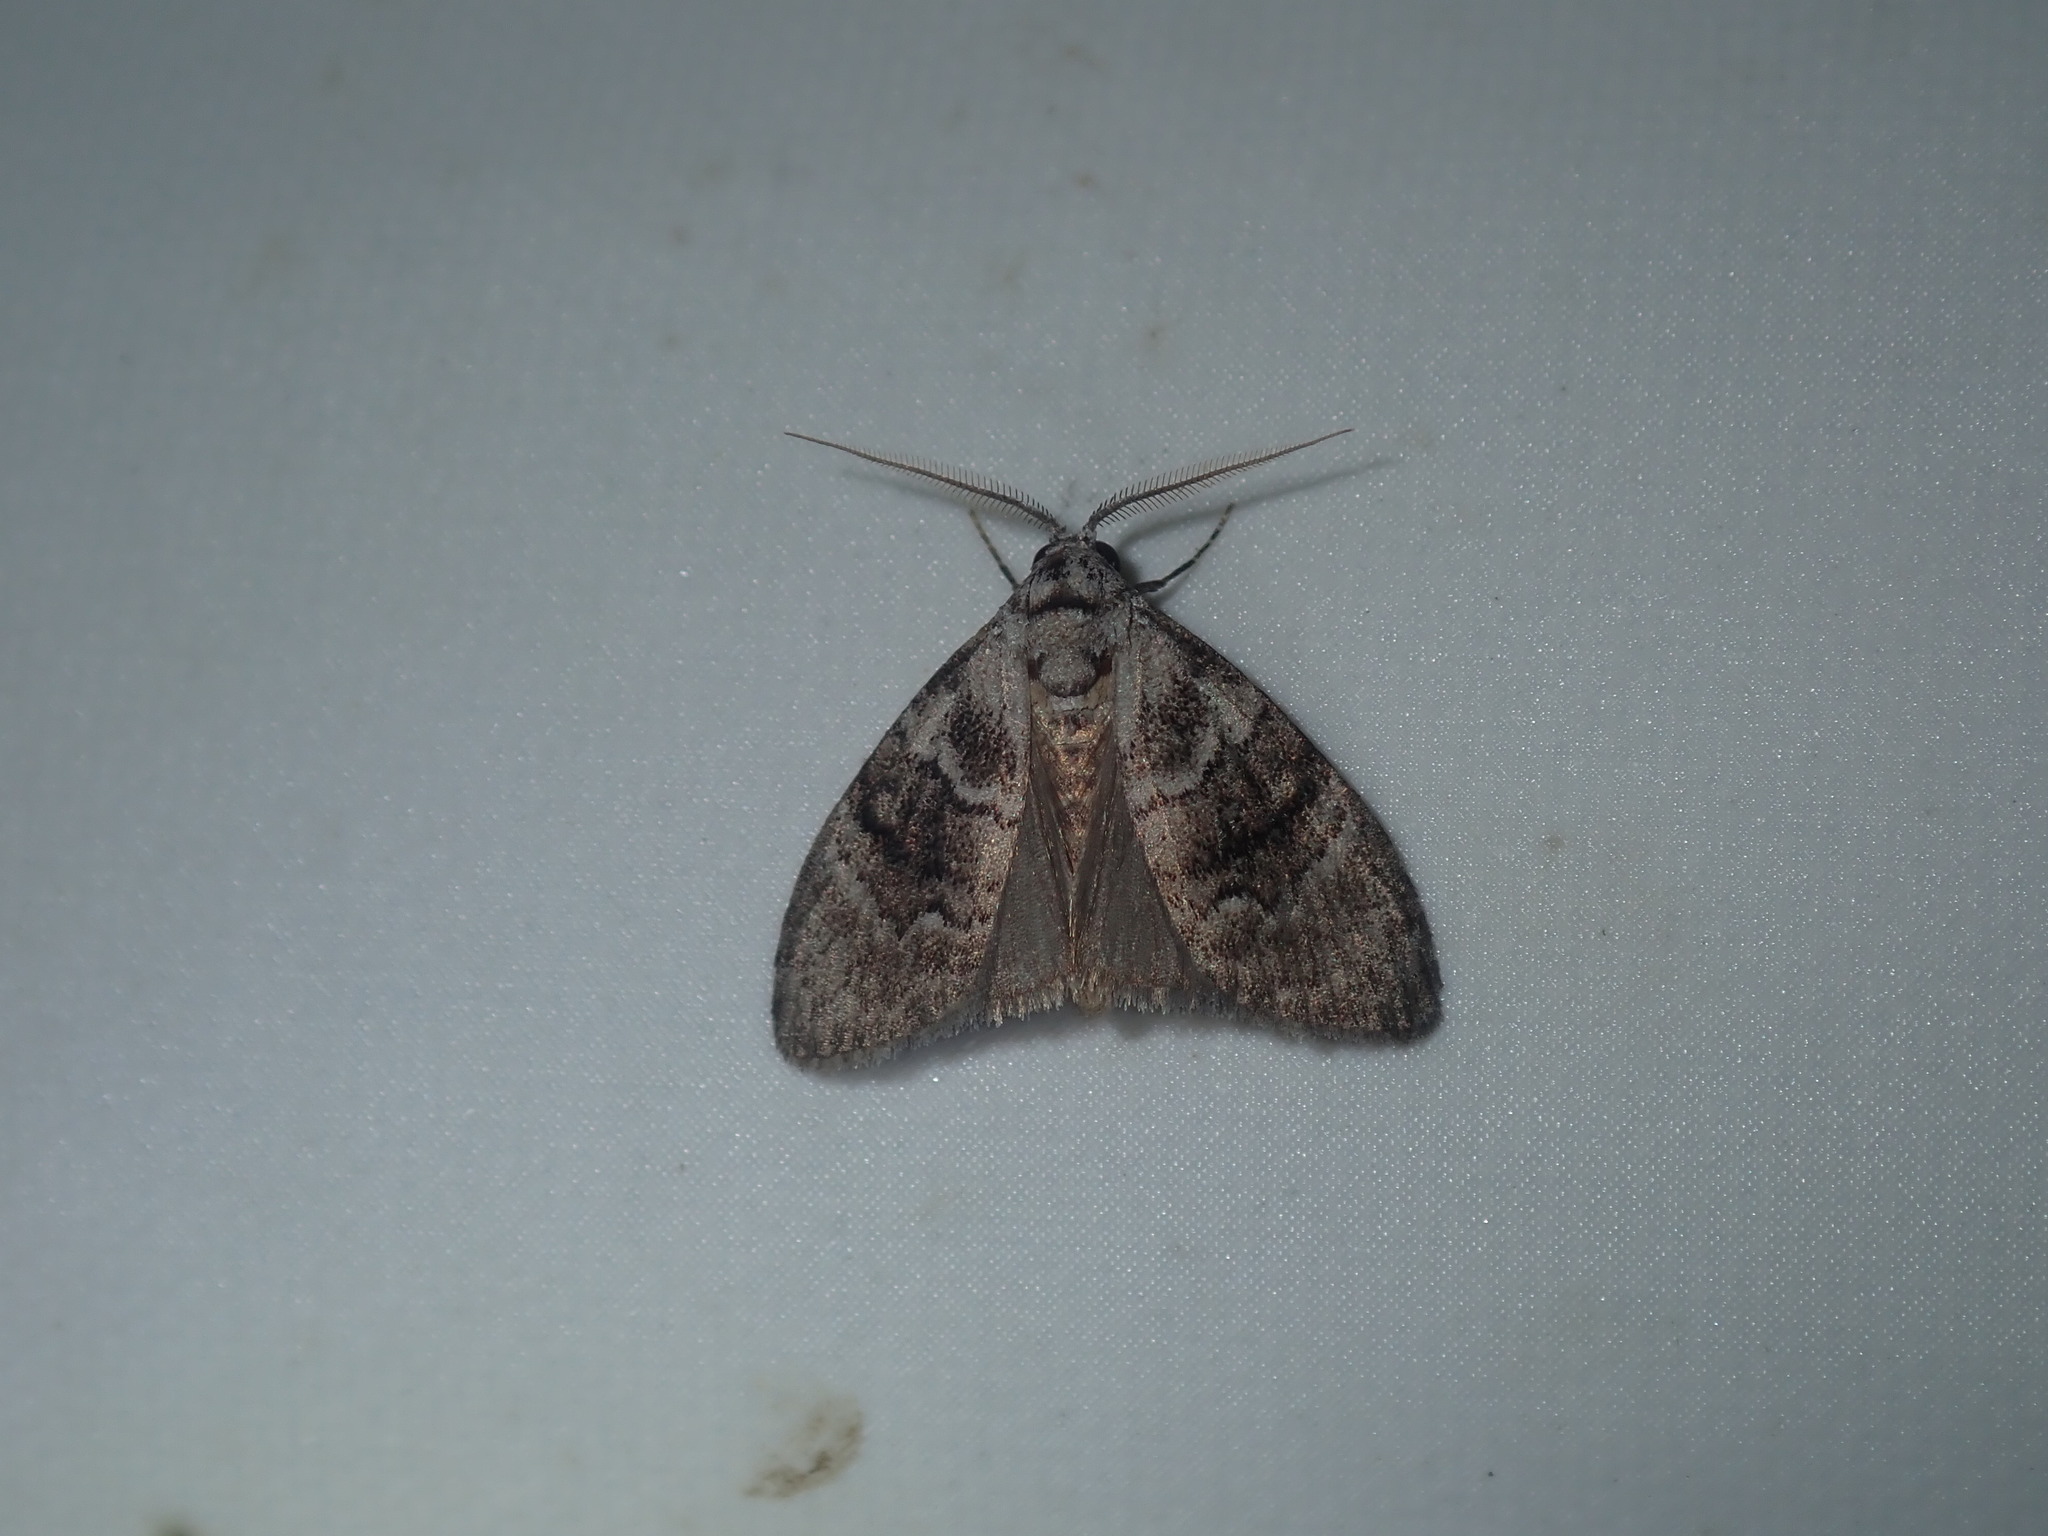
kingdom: Animalia
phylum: Arthropoda
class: Insecta
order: Lepidoptera
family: Nolidae
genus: Uraba
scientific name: Uraba lugens
